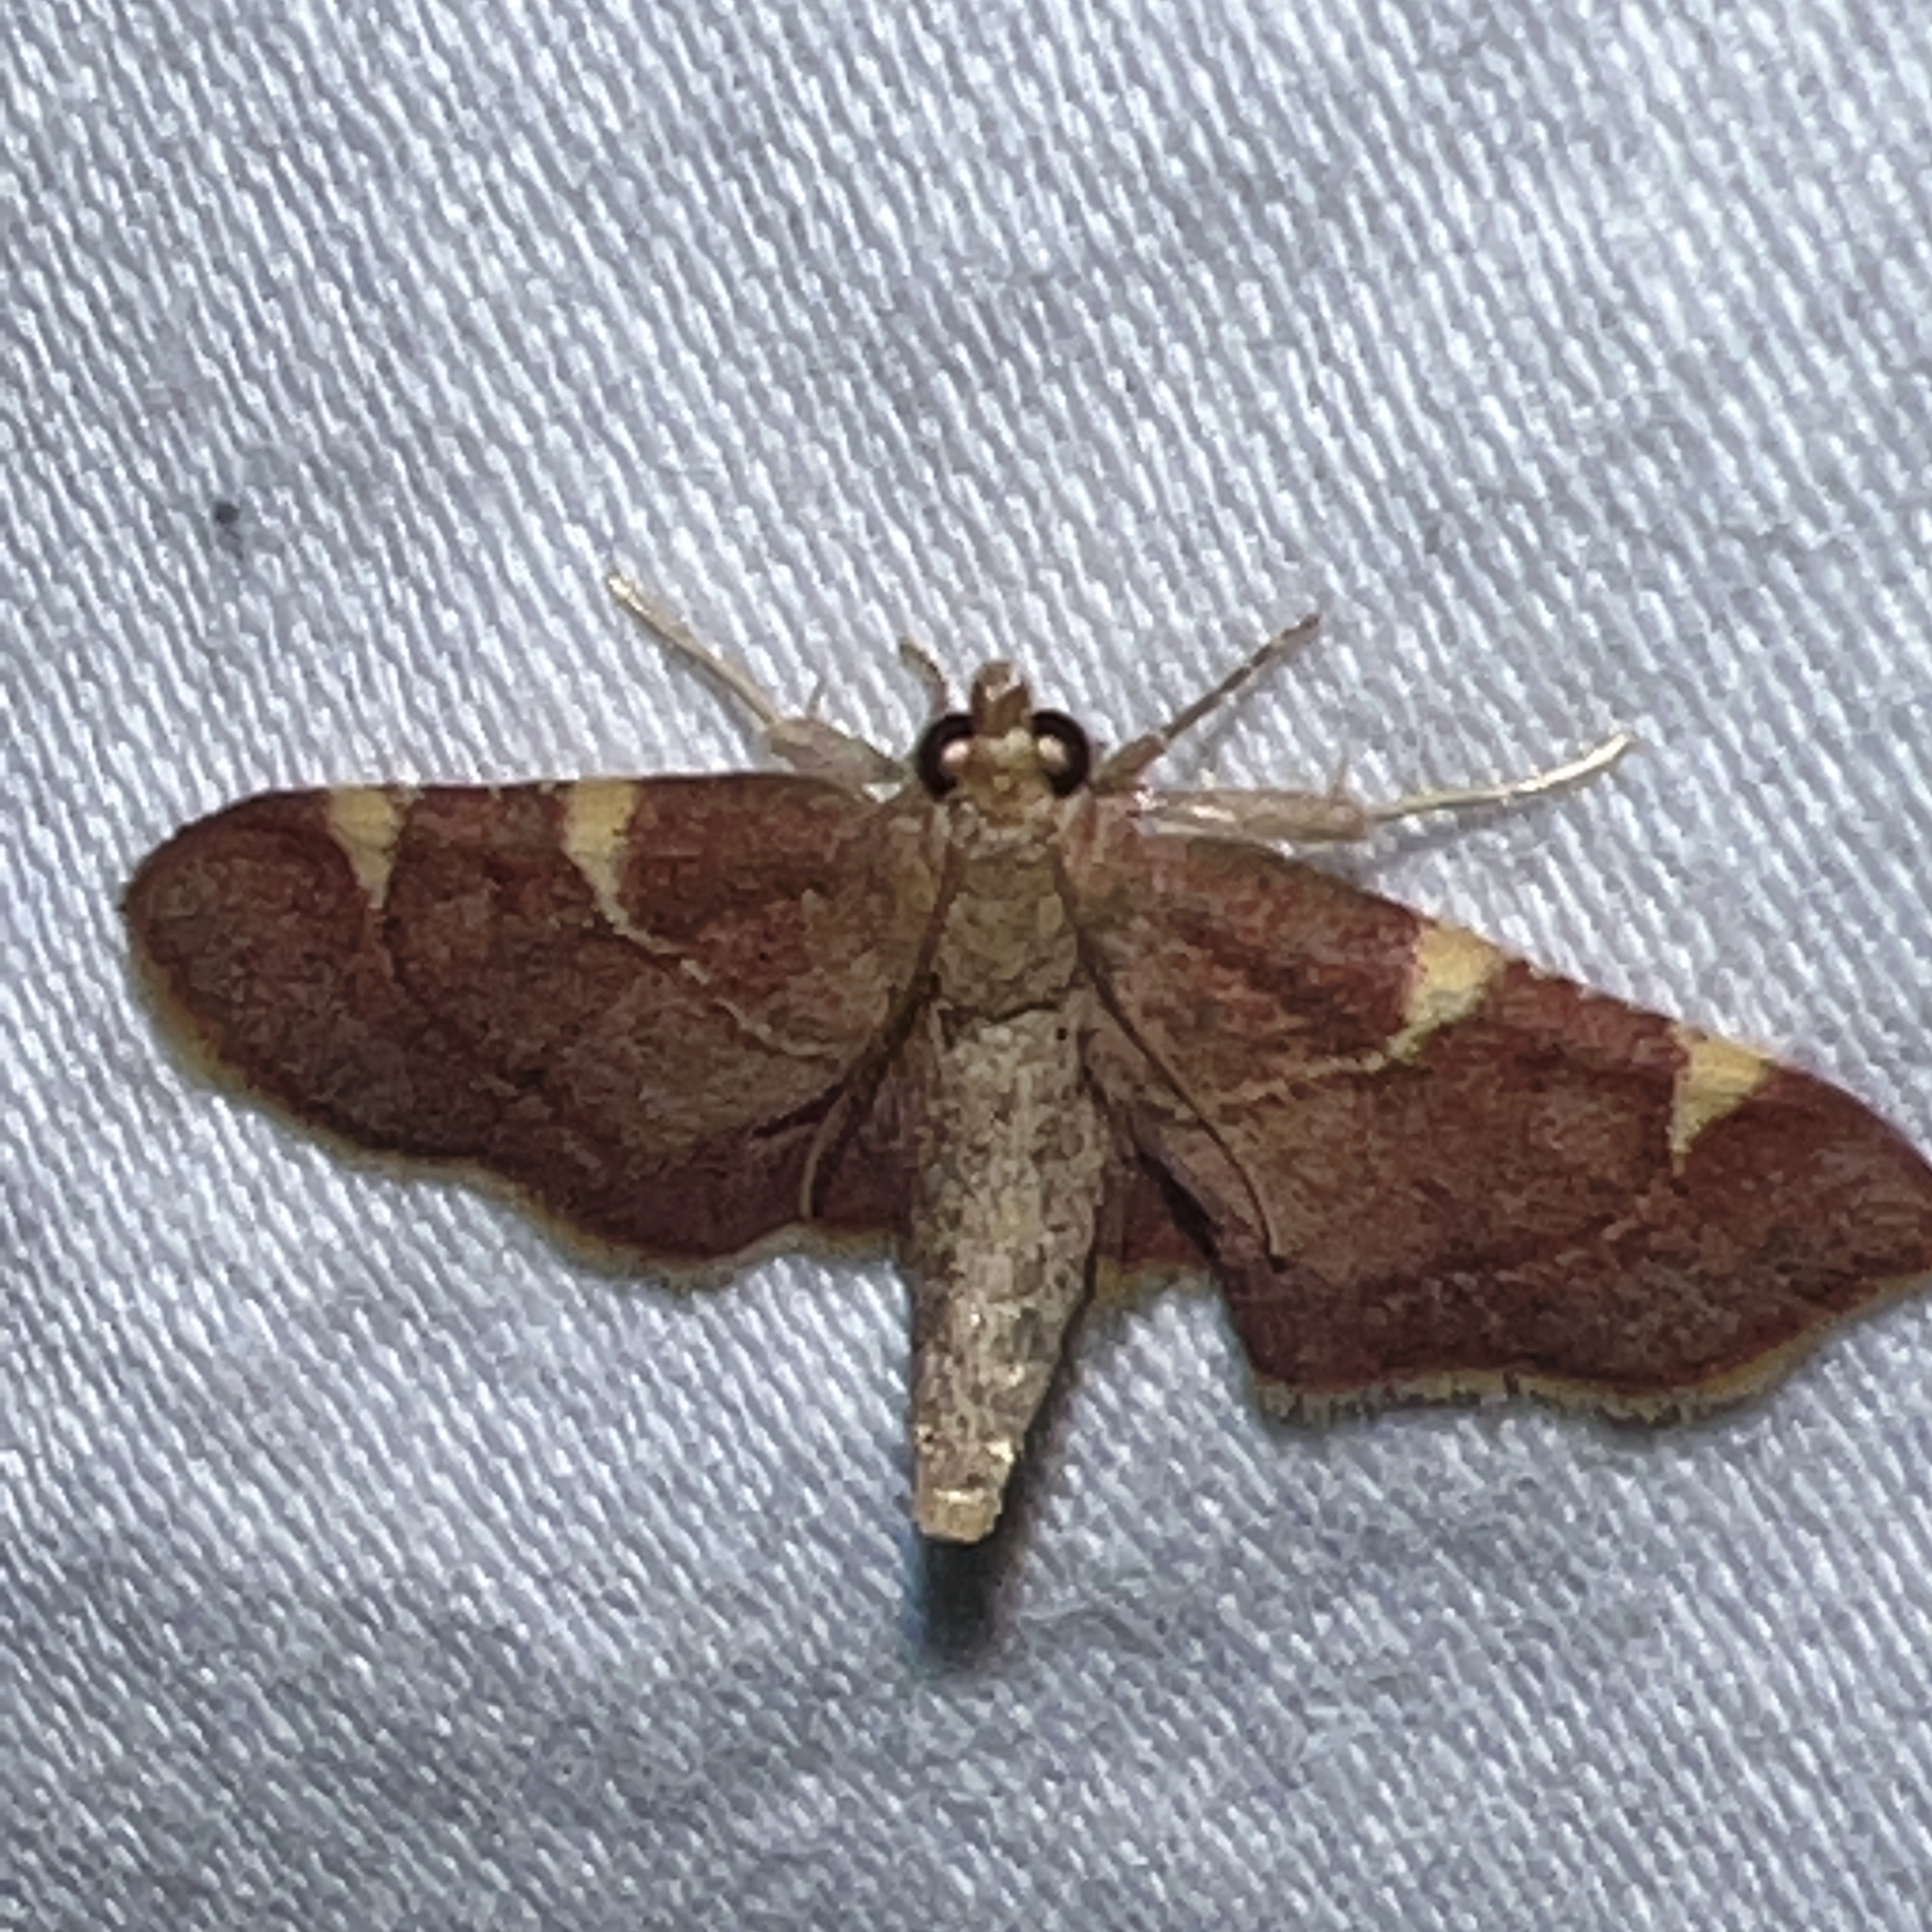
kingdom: Animalia
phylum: Arthropoda
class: Insecta
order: Lepidoptera
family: Pyralidae
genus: Hypsopygia
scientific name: Hypsopygia olinalis
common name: Yellow-fringed dolichomia moth
